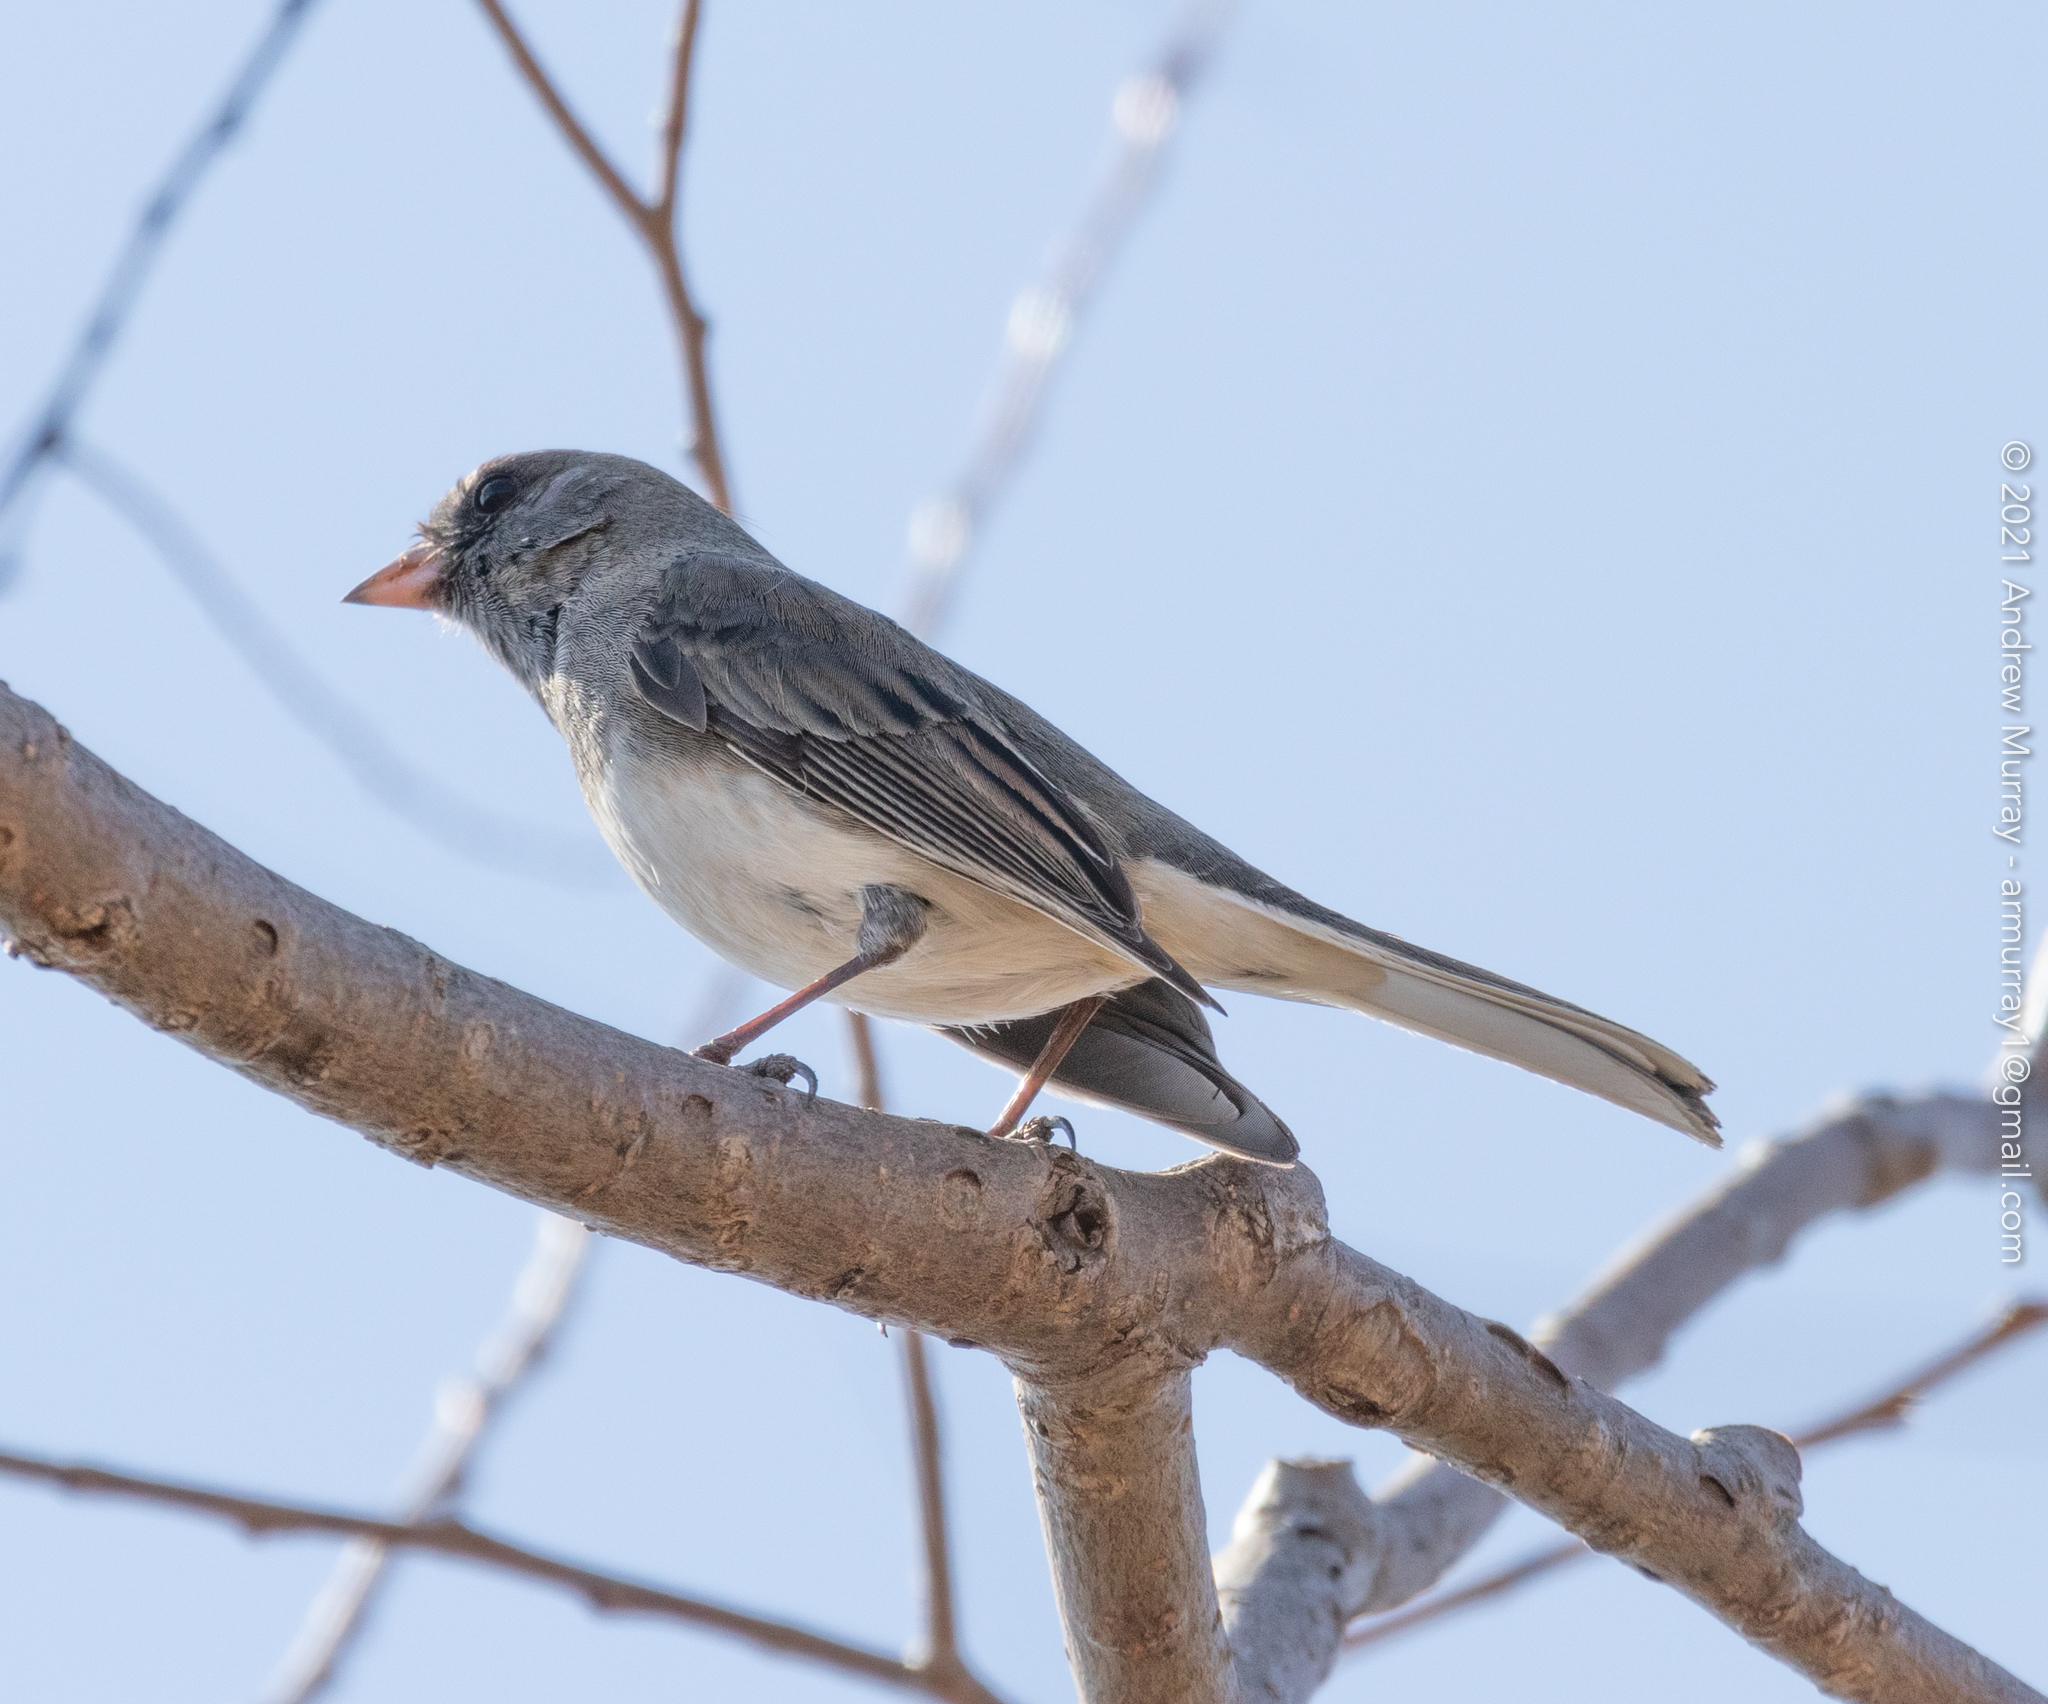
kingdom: Animalia
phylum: Chordata
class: Aves
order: Passeriformes
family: Passerellidae
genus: Junco
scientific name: Junco hyemalis
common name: Dark-eyed junco
